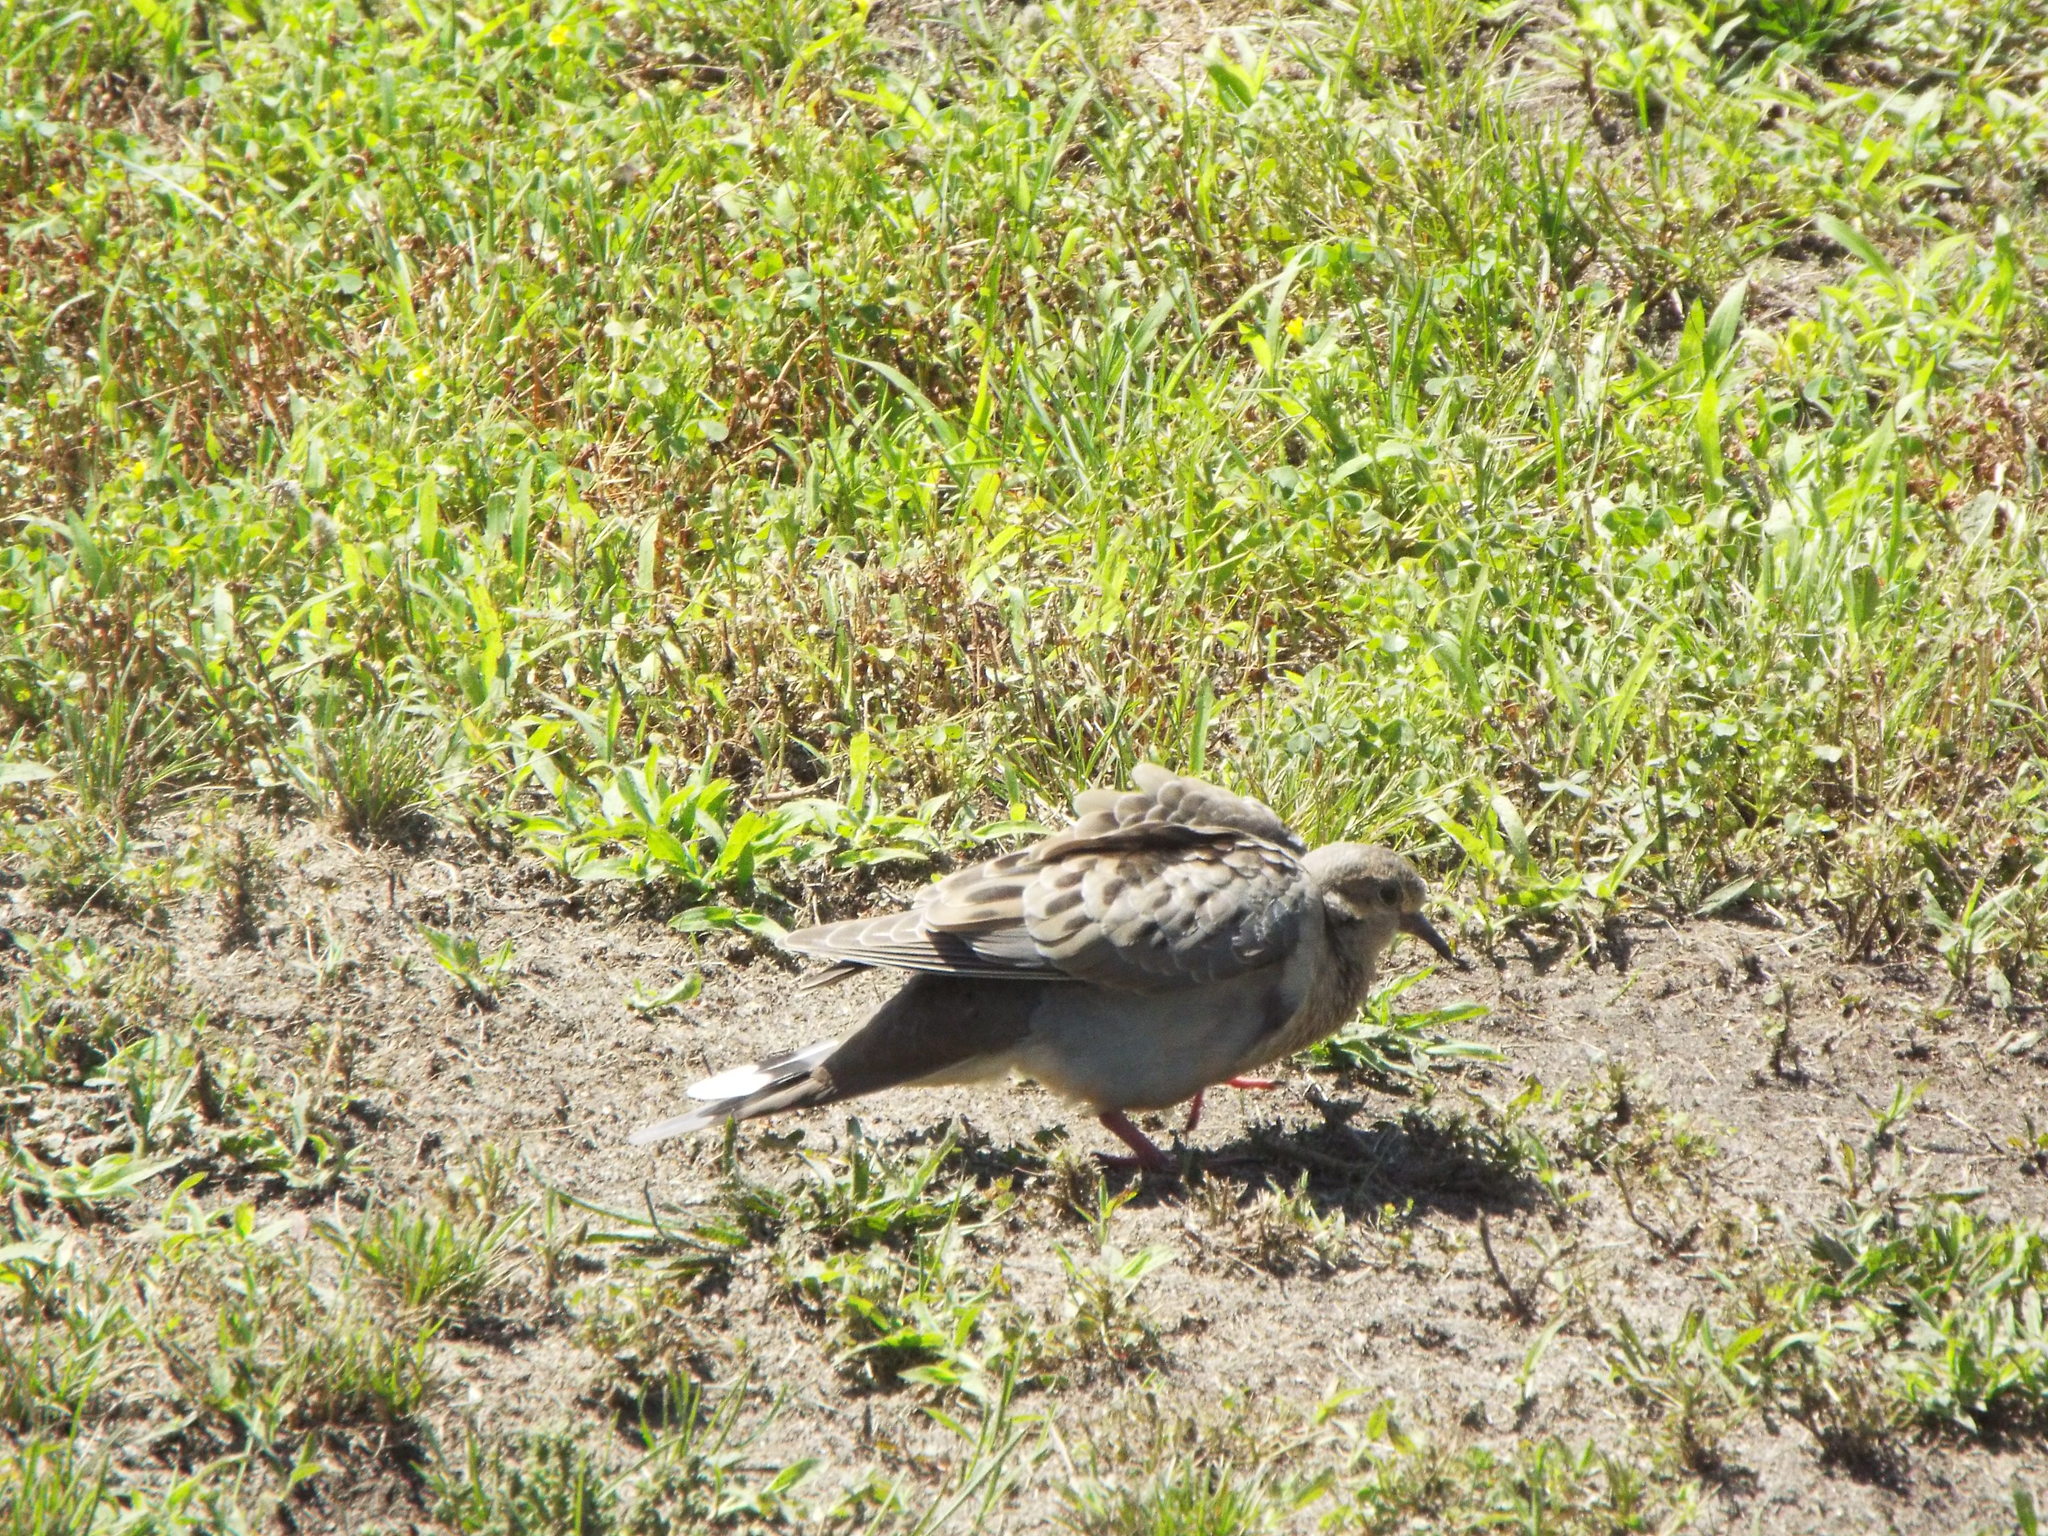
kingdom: Animalia
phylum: Chordata
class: Aves
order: Columbiformes
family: Columbidae
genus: Zenaida
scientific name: Zenaida macroura
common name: Mourning dove
